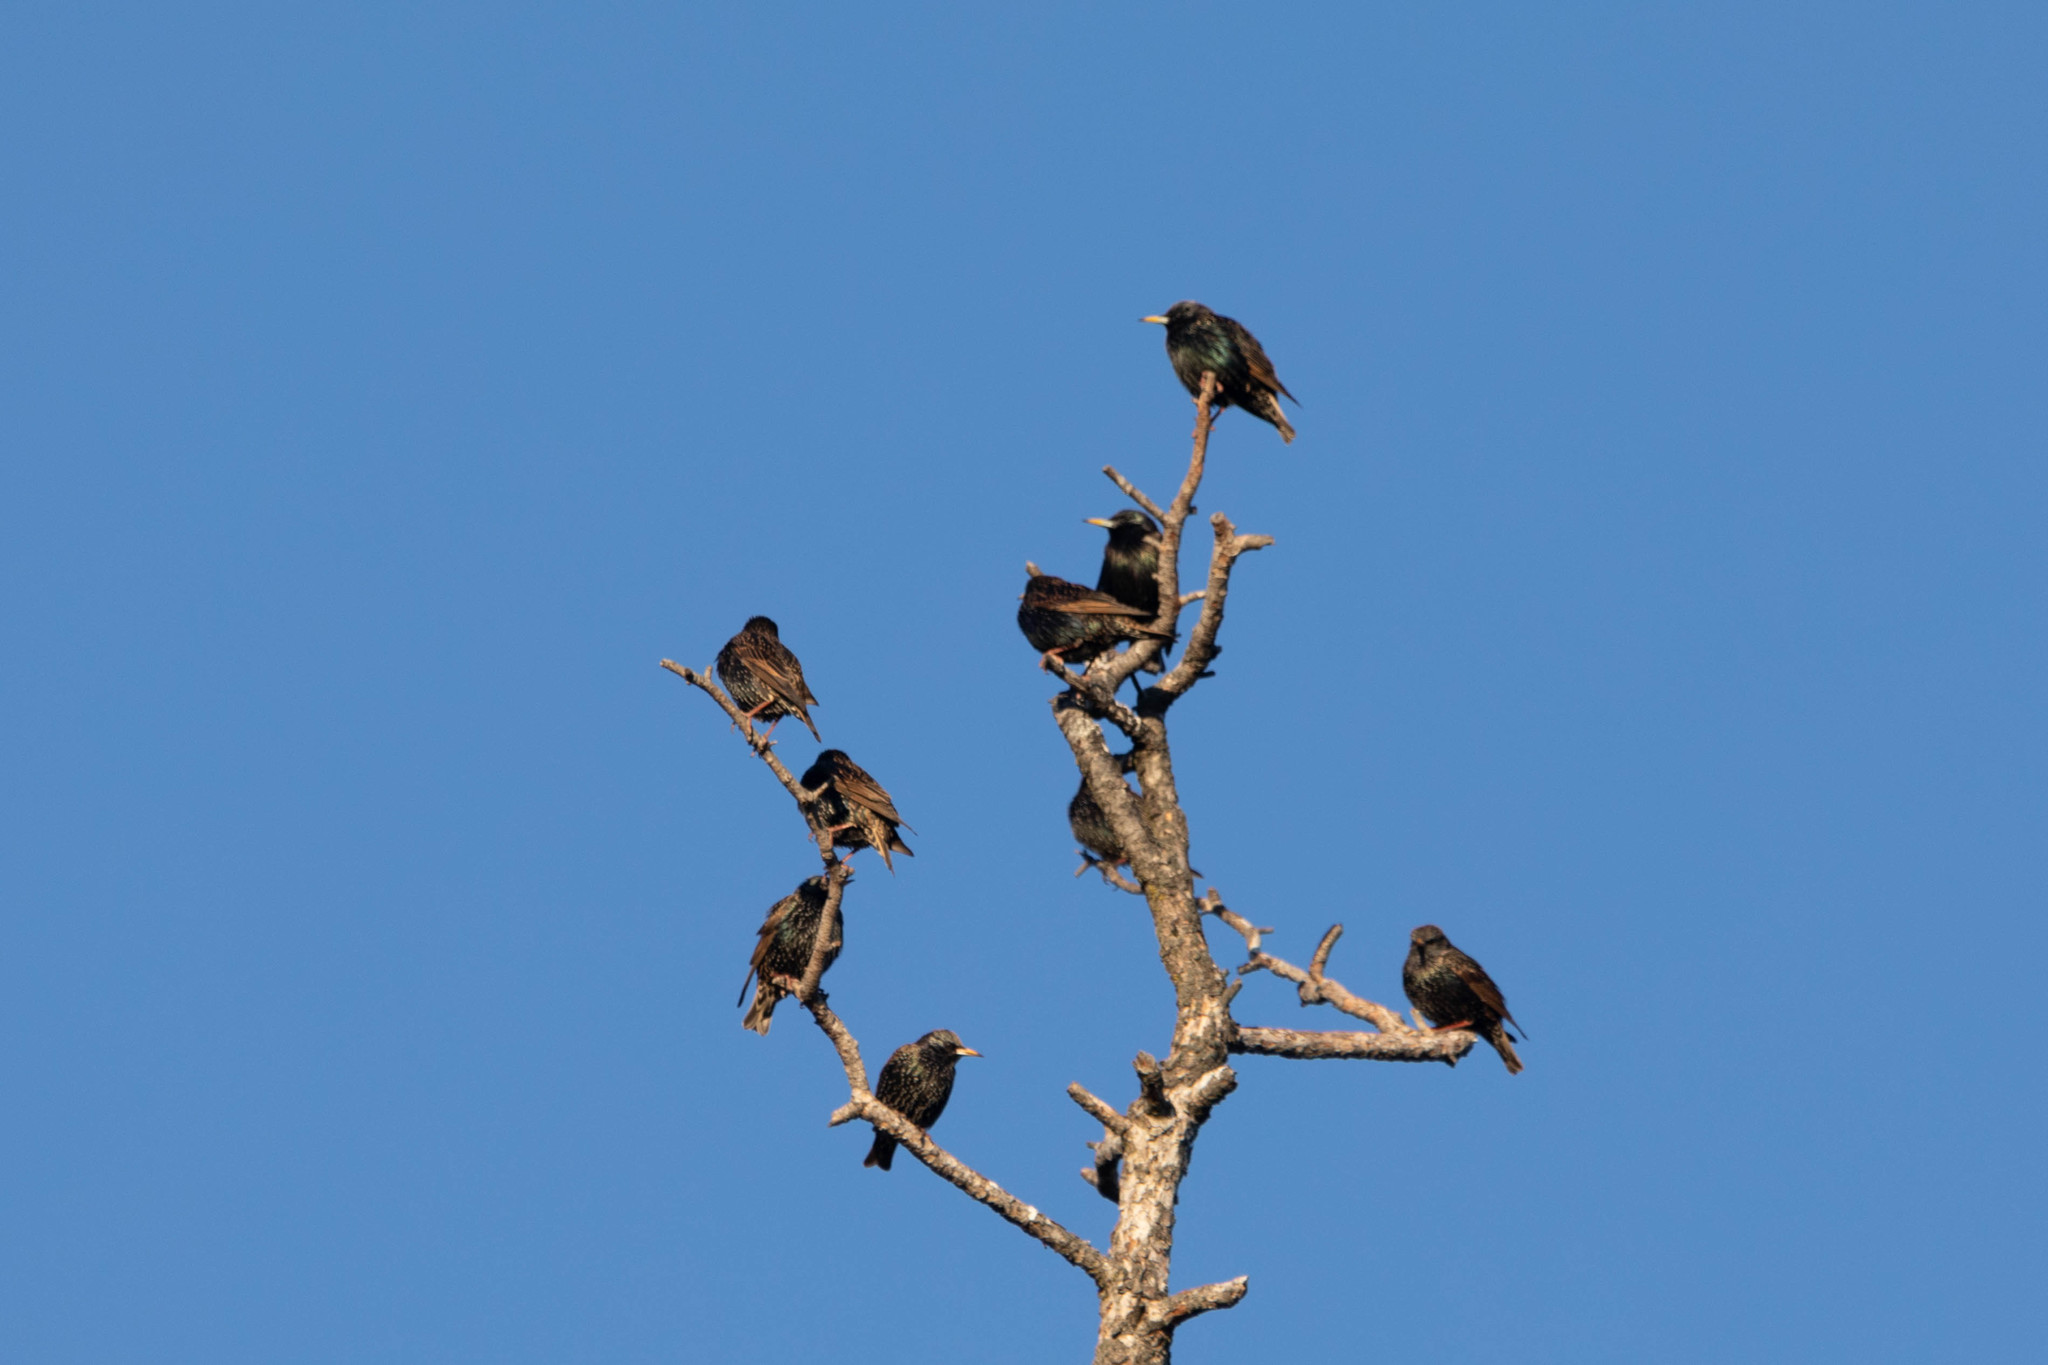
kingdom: Animalia
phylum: Chordata
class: Aves
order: Passeriformes
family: Sturnidae
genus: Sturnus
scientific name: Sturnus vulgaris
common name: Common starling
